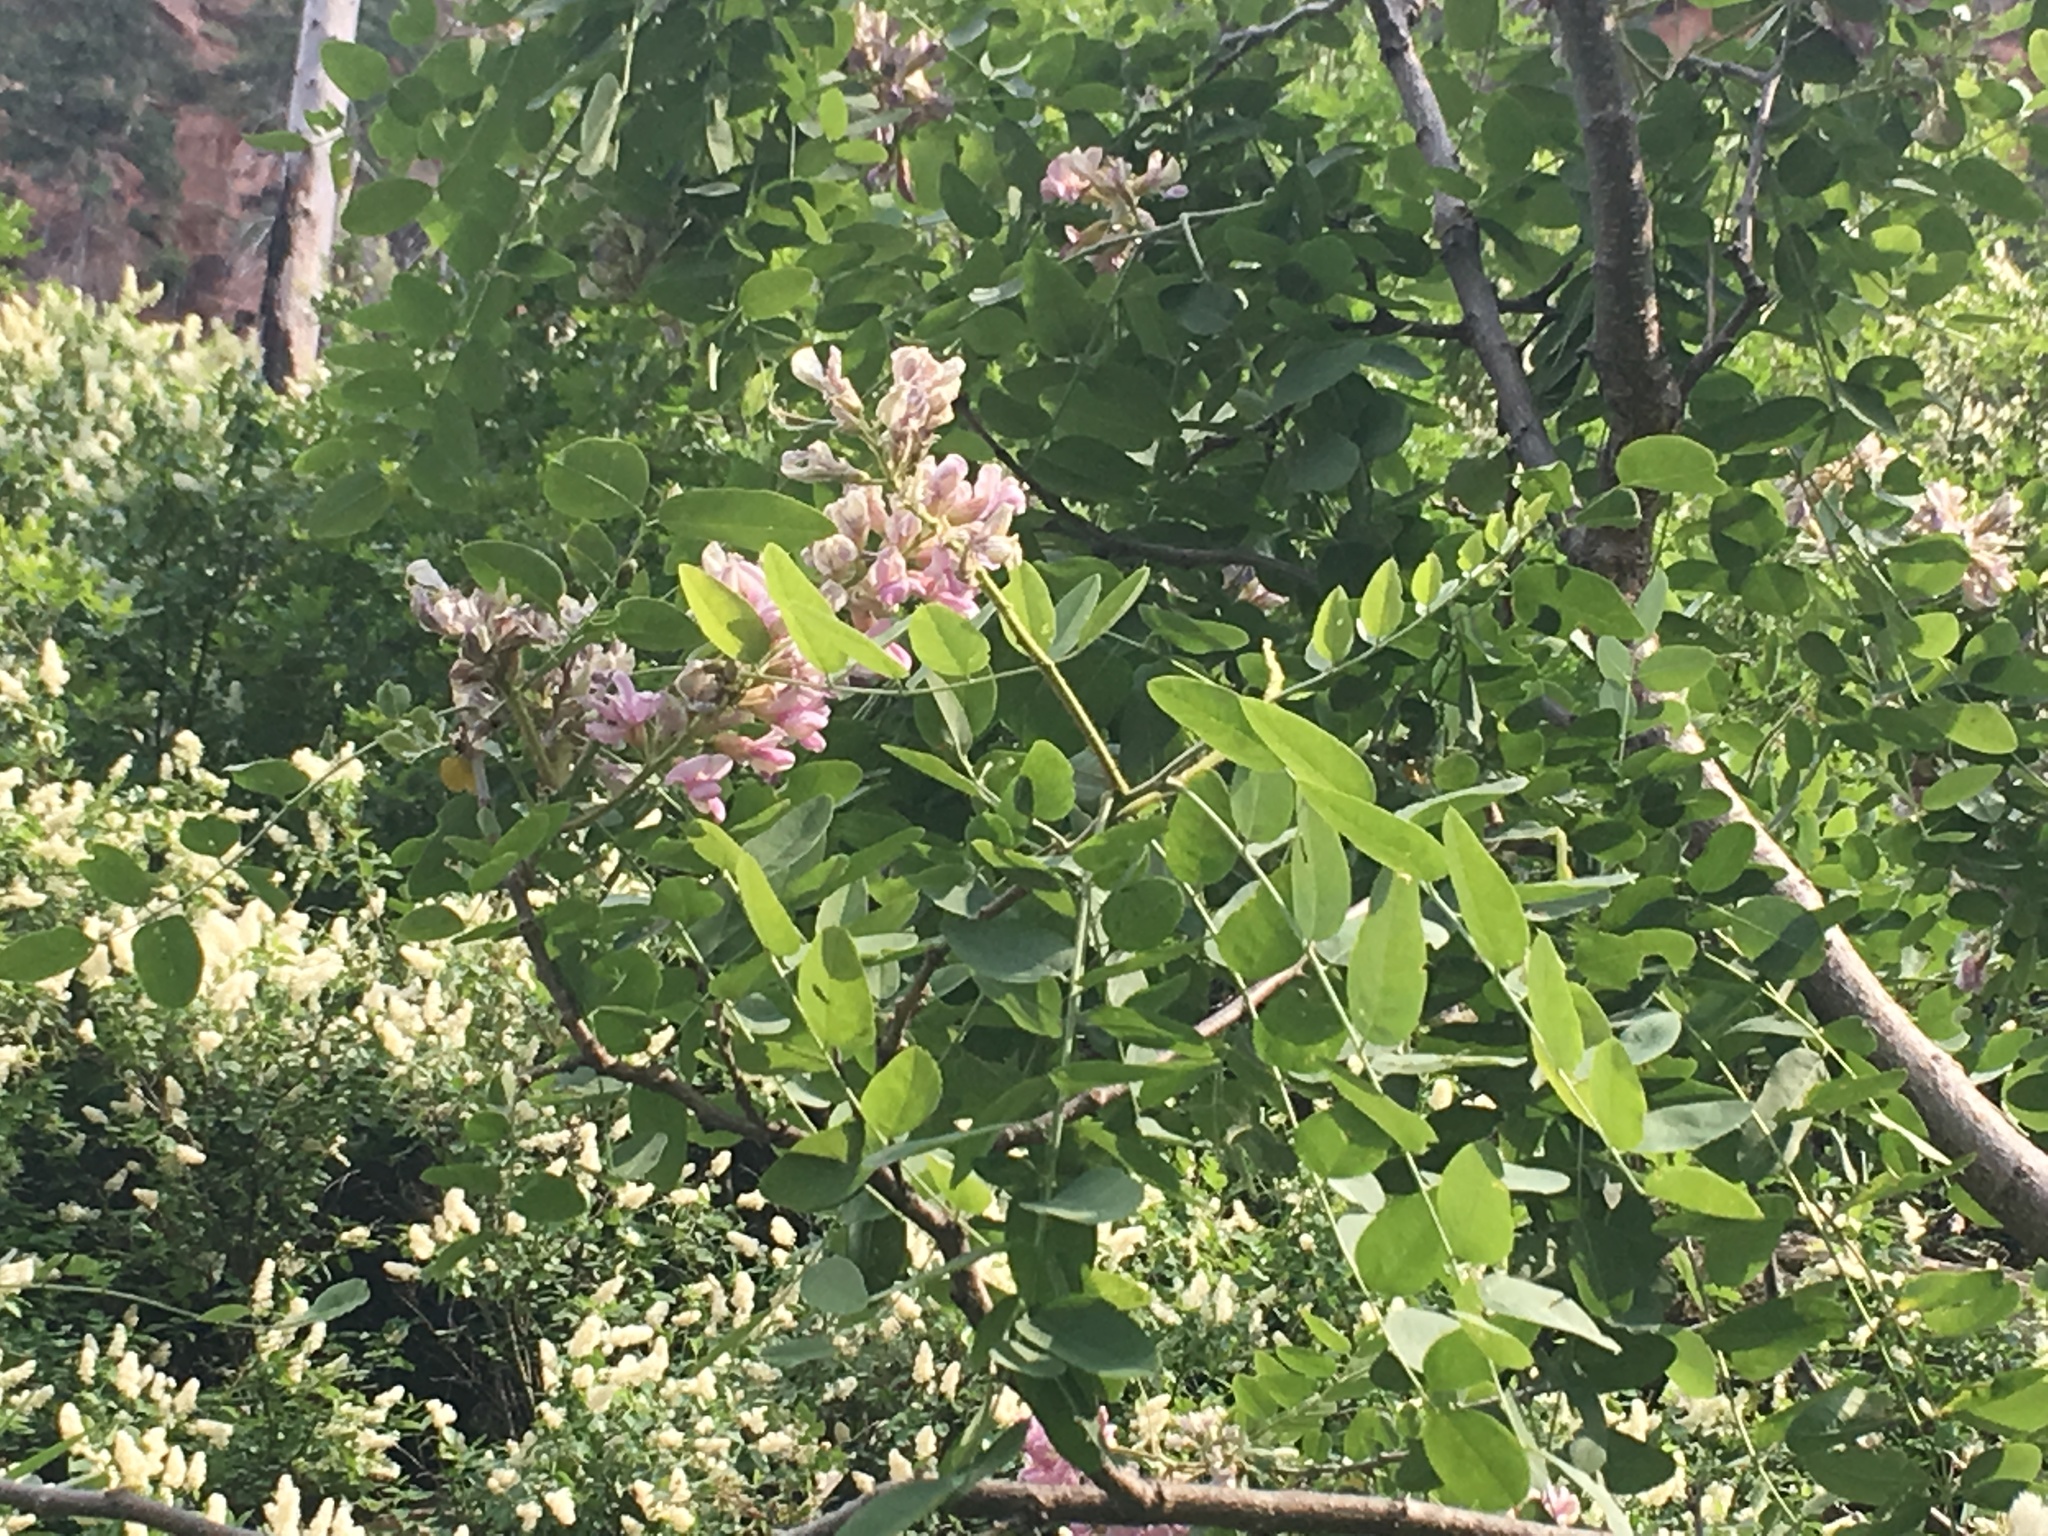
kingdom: Plantae
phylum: Tracheophyta
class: Magnoliopsida
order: Fabales
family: Fabaceae
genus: Robinia
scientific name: Robinia neomexicana
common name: New mexico locust
